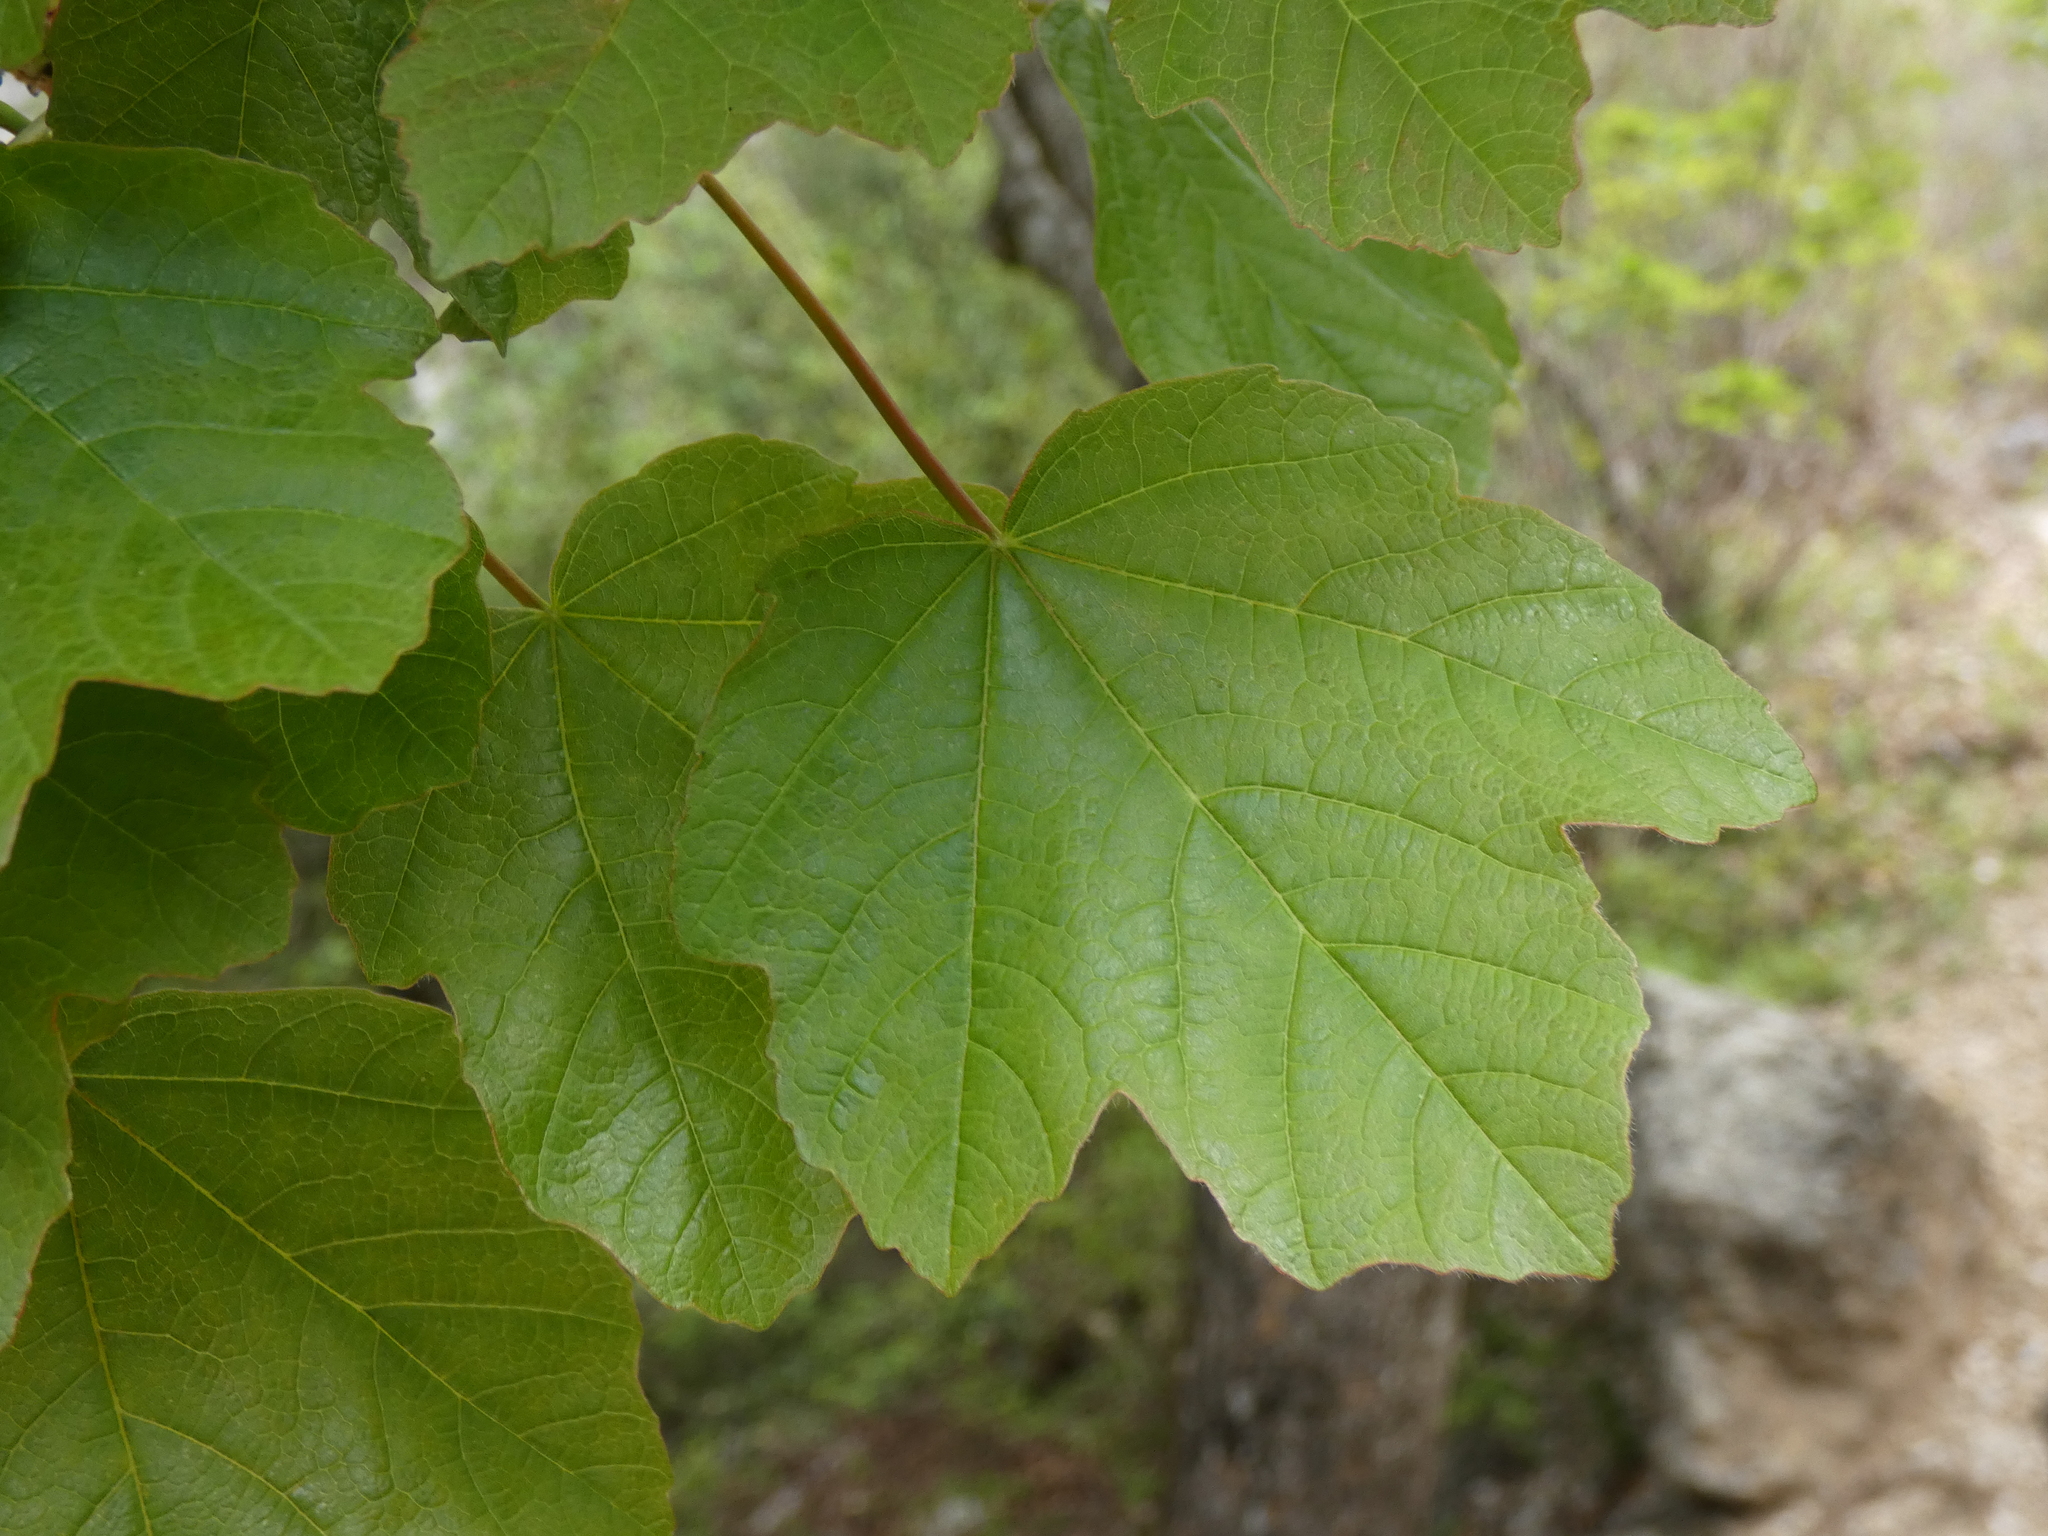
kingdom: Plantae
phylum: Tracheophyta
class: Magnoliopsida
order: Sapindales
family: Sapindaceae
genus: Acer
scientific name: Acer opalus
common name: Italian maple
